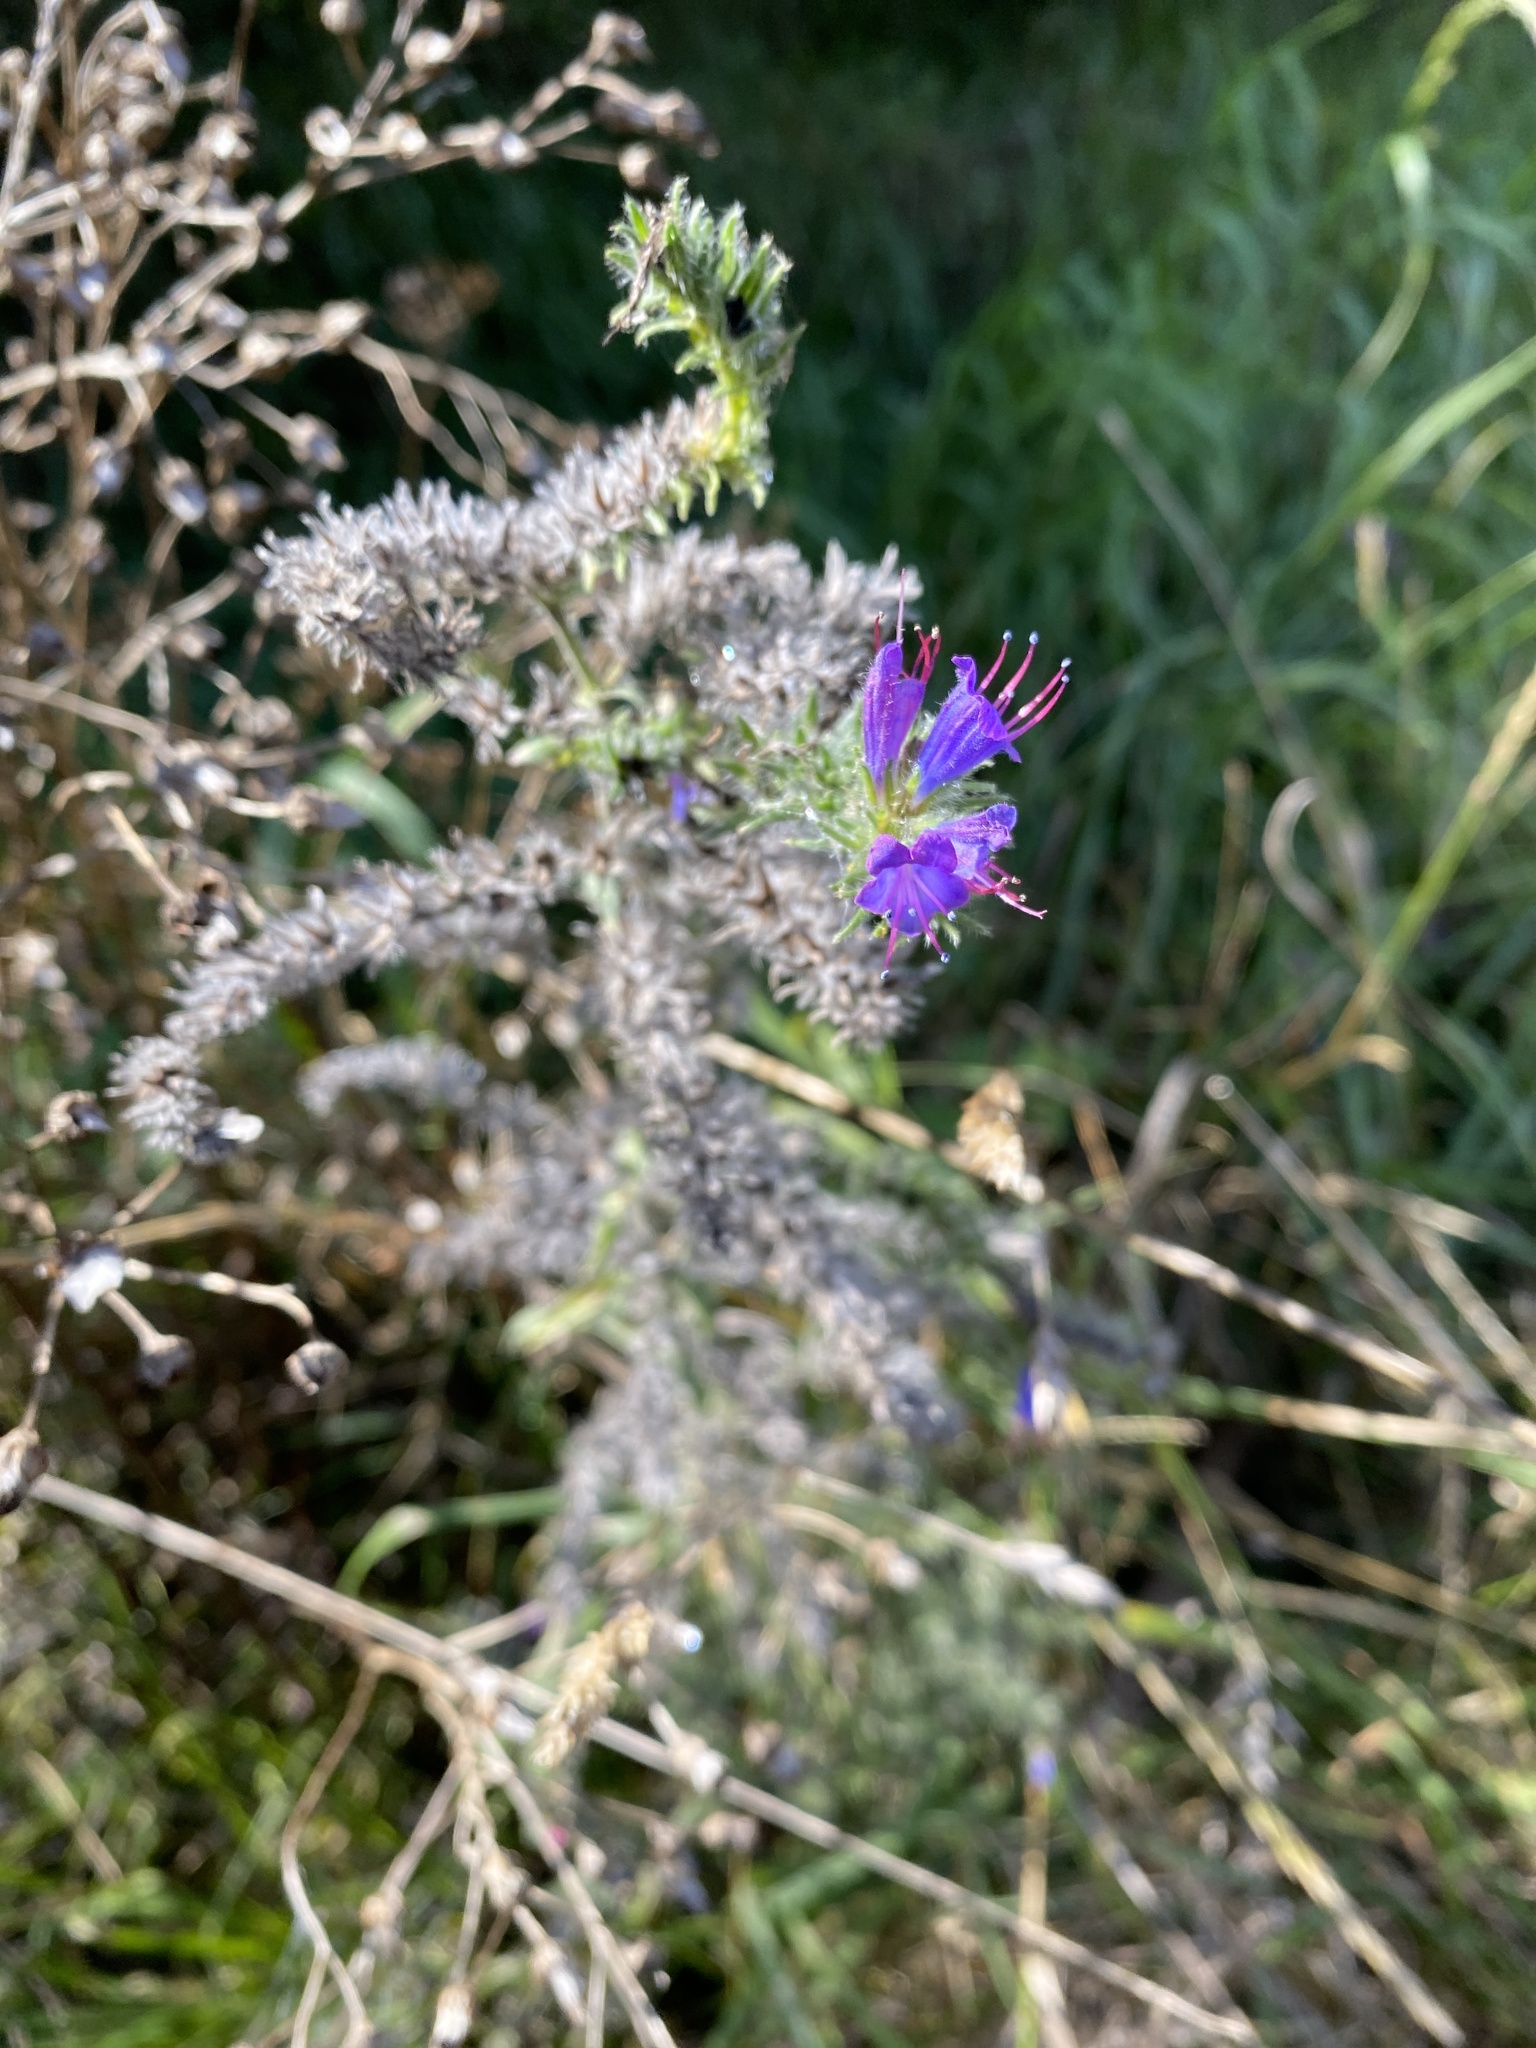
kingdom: Plantae
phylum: Tracheophyta
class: Magnoliopsida
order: Boraginales
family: Boraginaceae
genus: Echium
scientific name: Echium vulgare
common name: Common viper's bugloss
